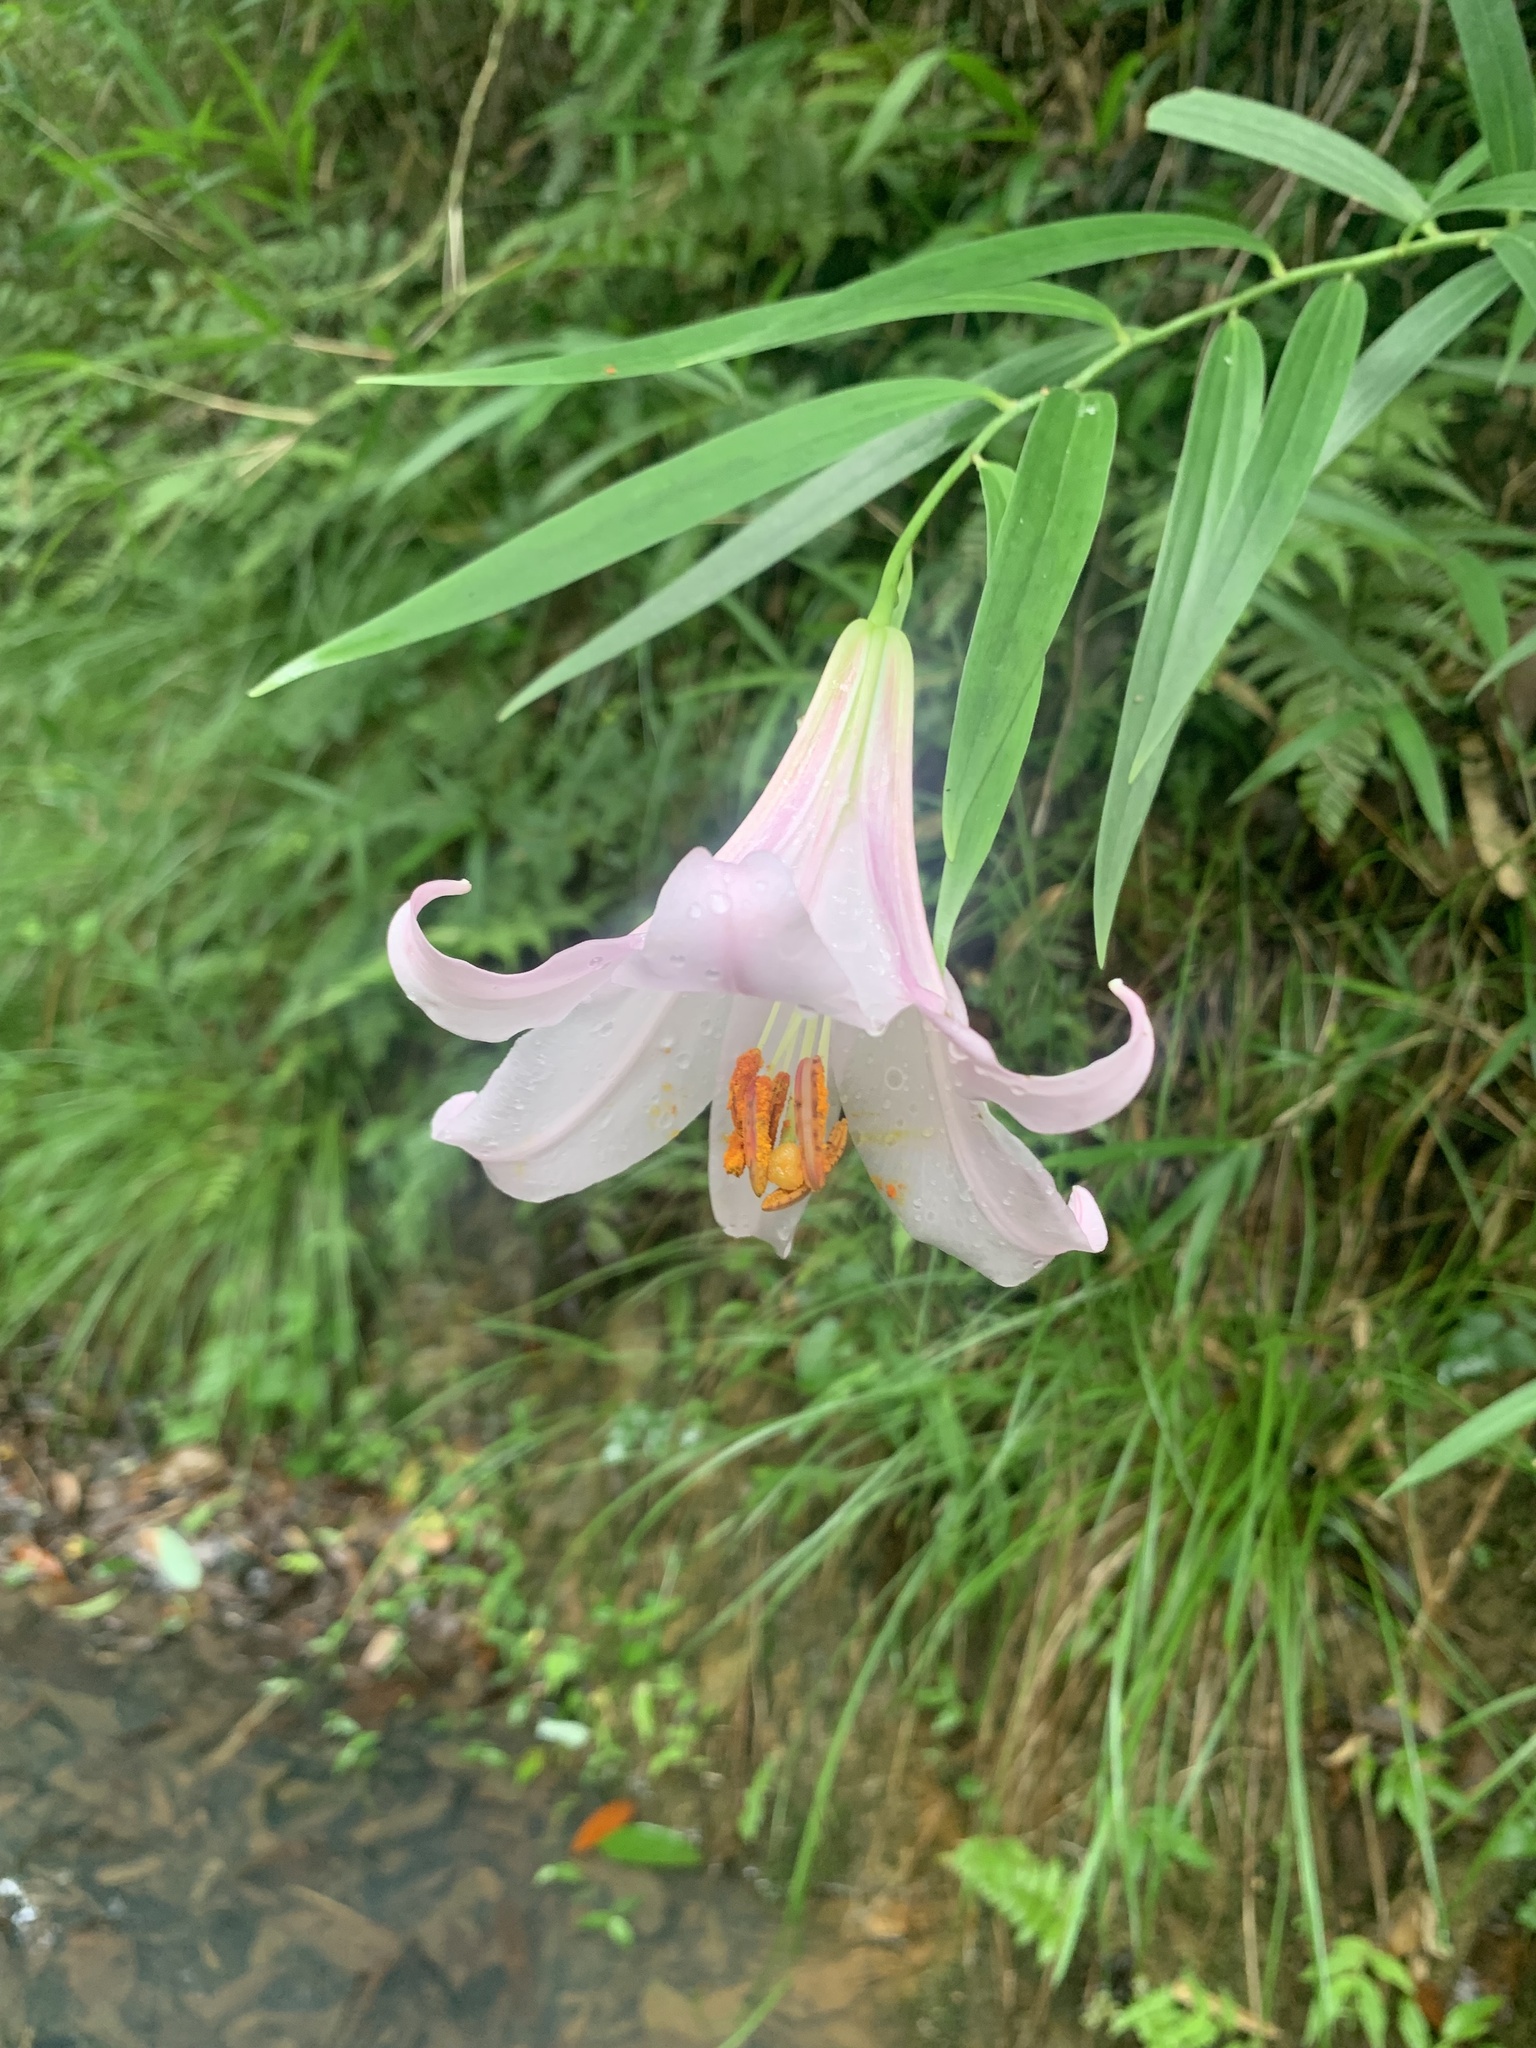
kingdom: Plantae
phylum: Tracheophyta
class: Liliopsida
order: Liliales
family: Liliaceae
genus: Lilium
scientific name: Lilium japonicum
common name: Japanese lily
